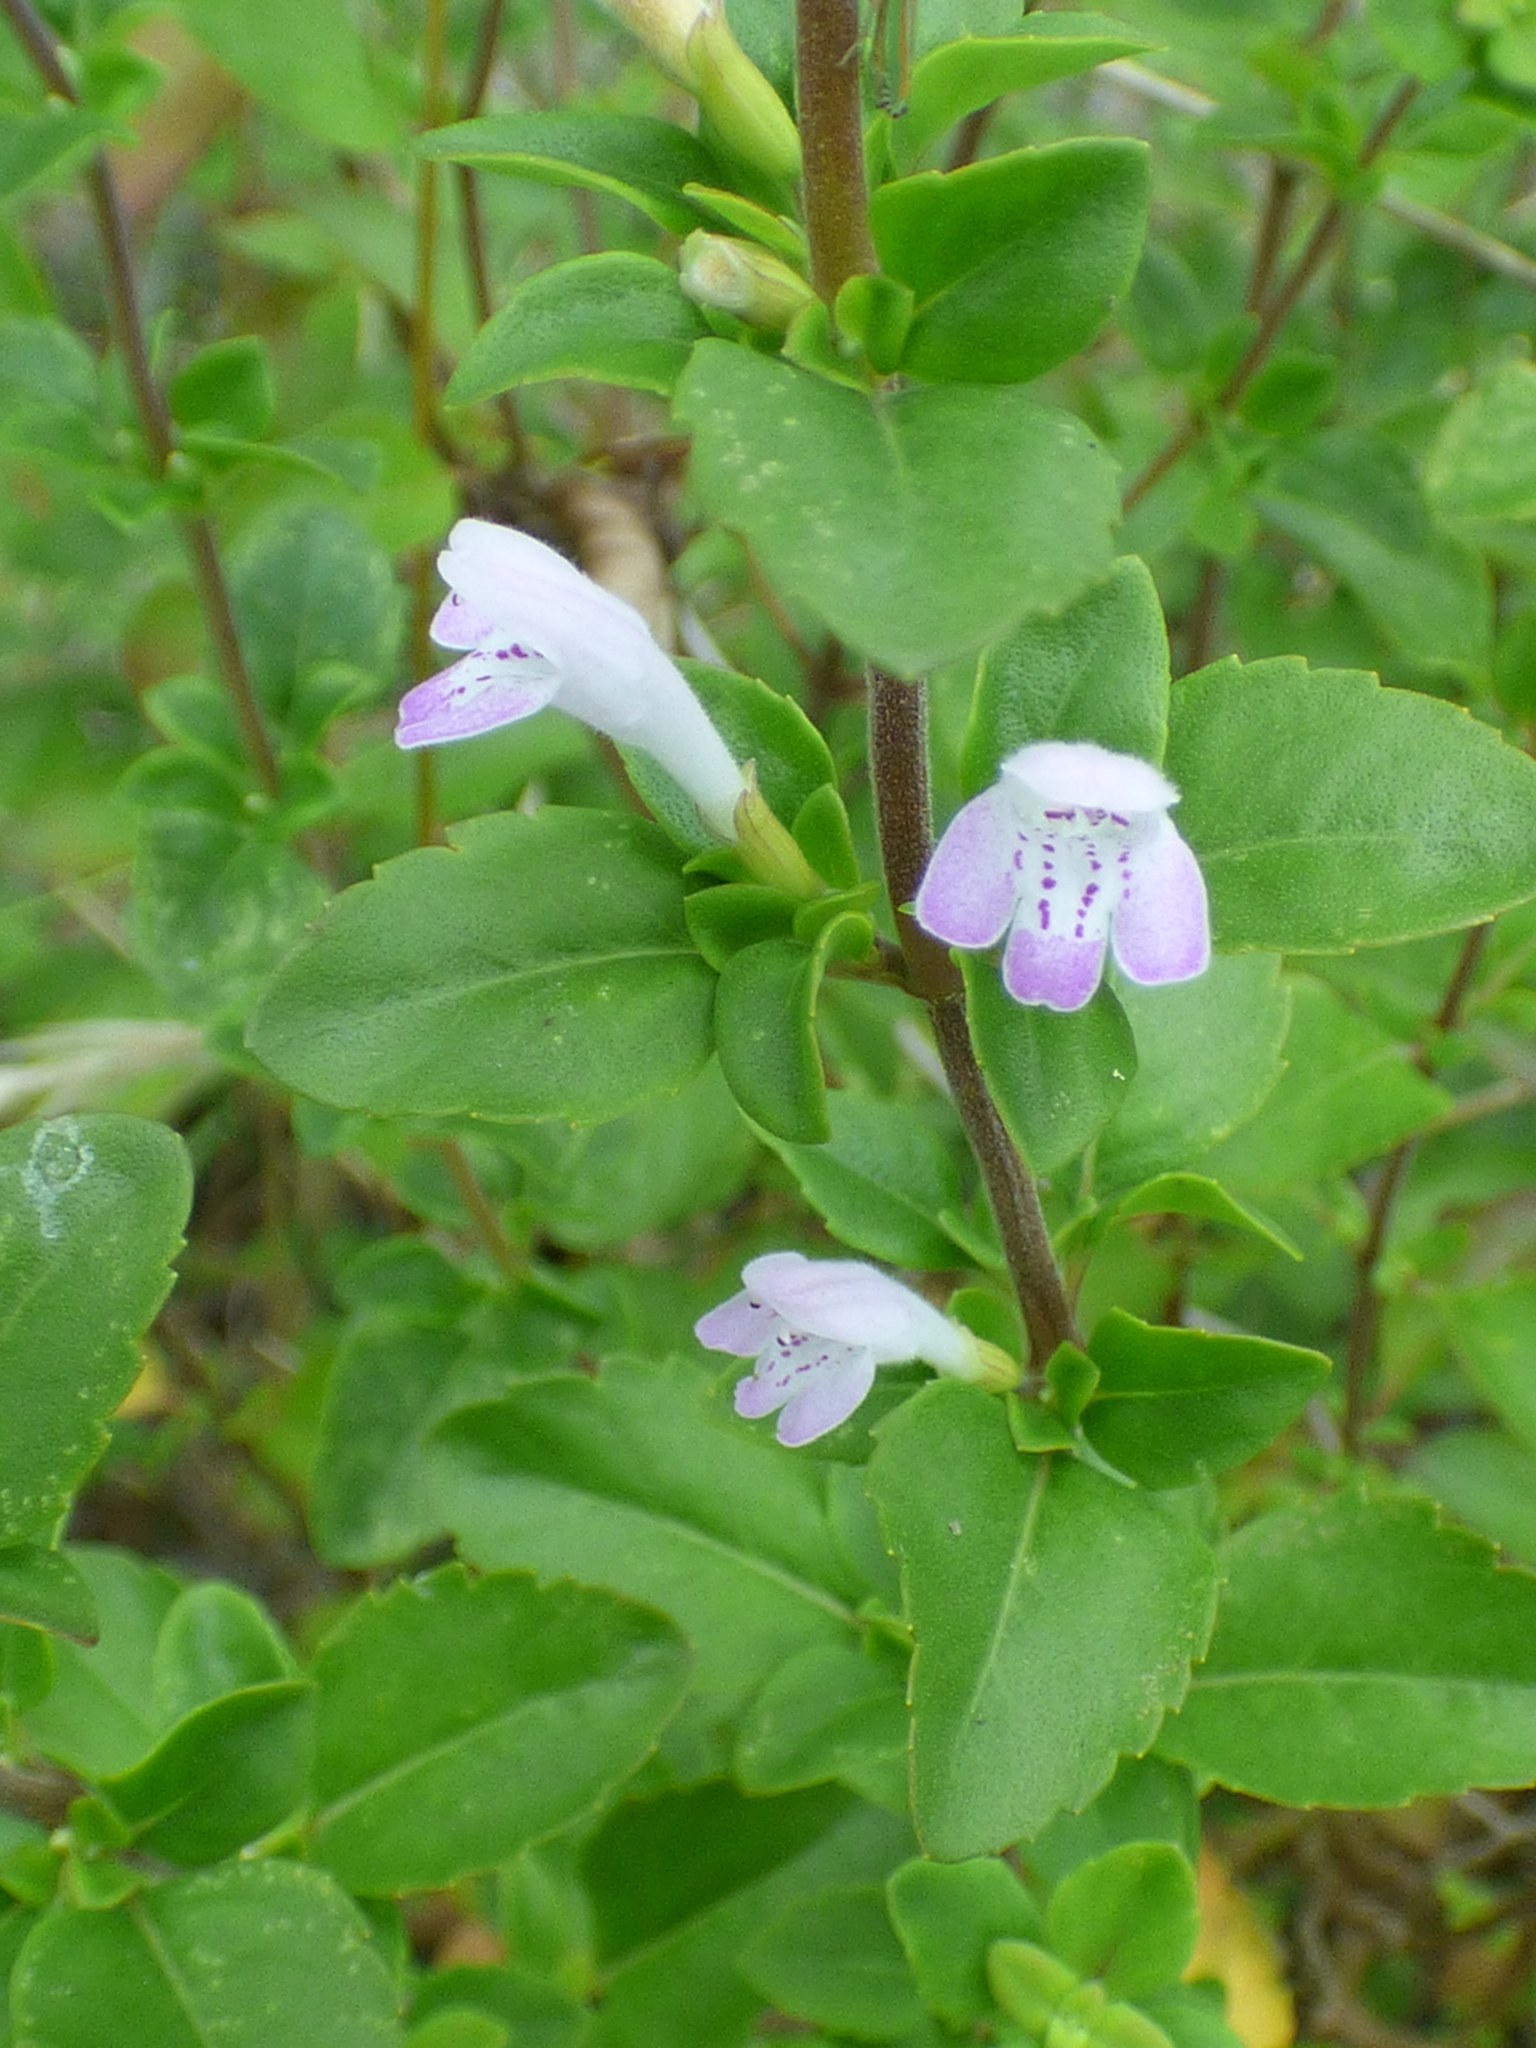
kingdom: Plantae
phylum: Tracheophyta
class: Magnoliopsida
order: Lamiales
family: Lamiaceae
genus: Clinopodium
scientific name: Clinopodium carolinianum
